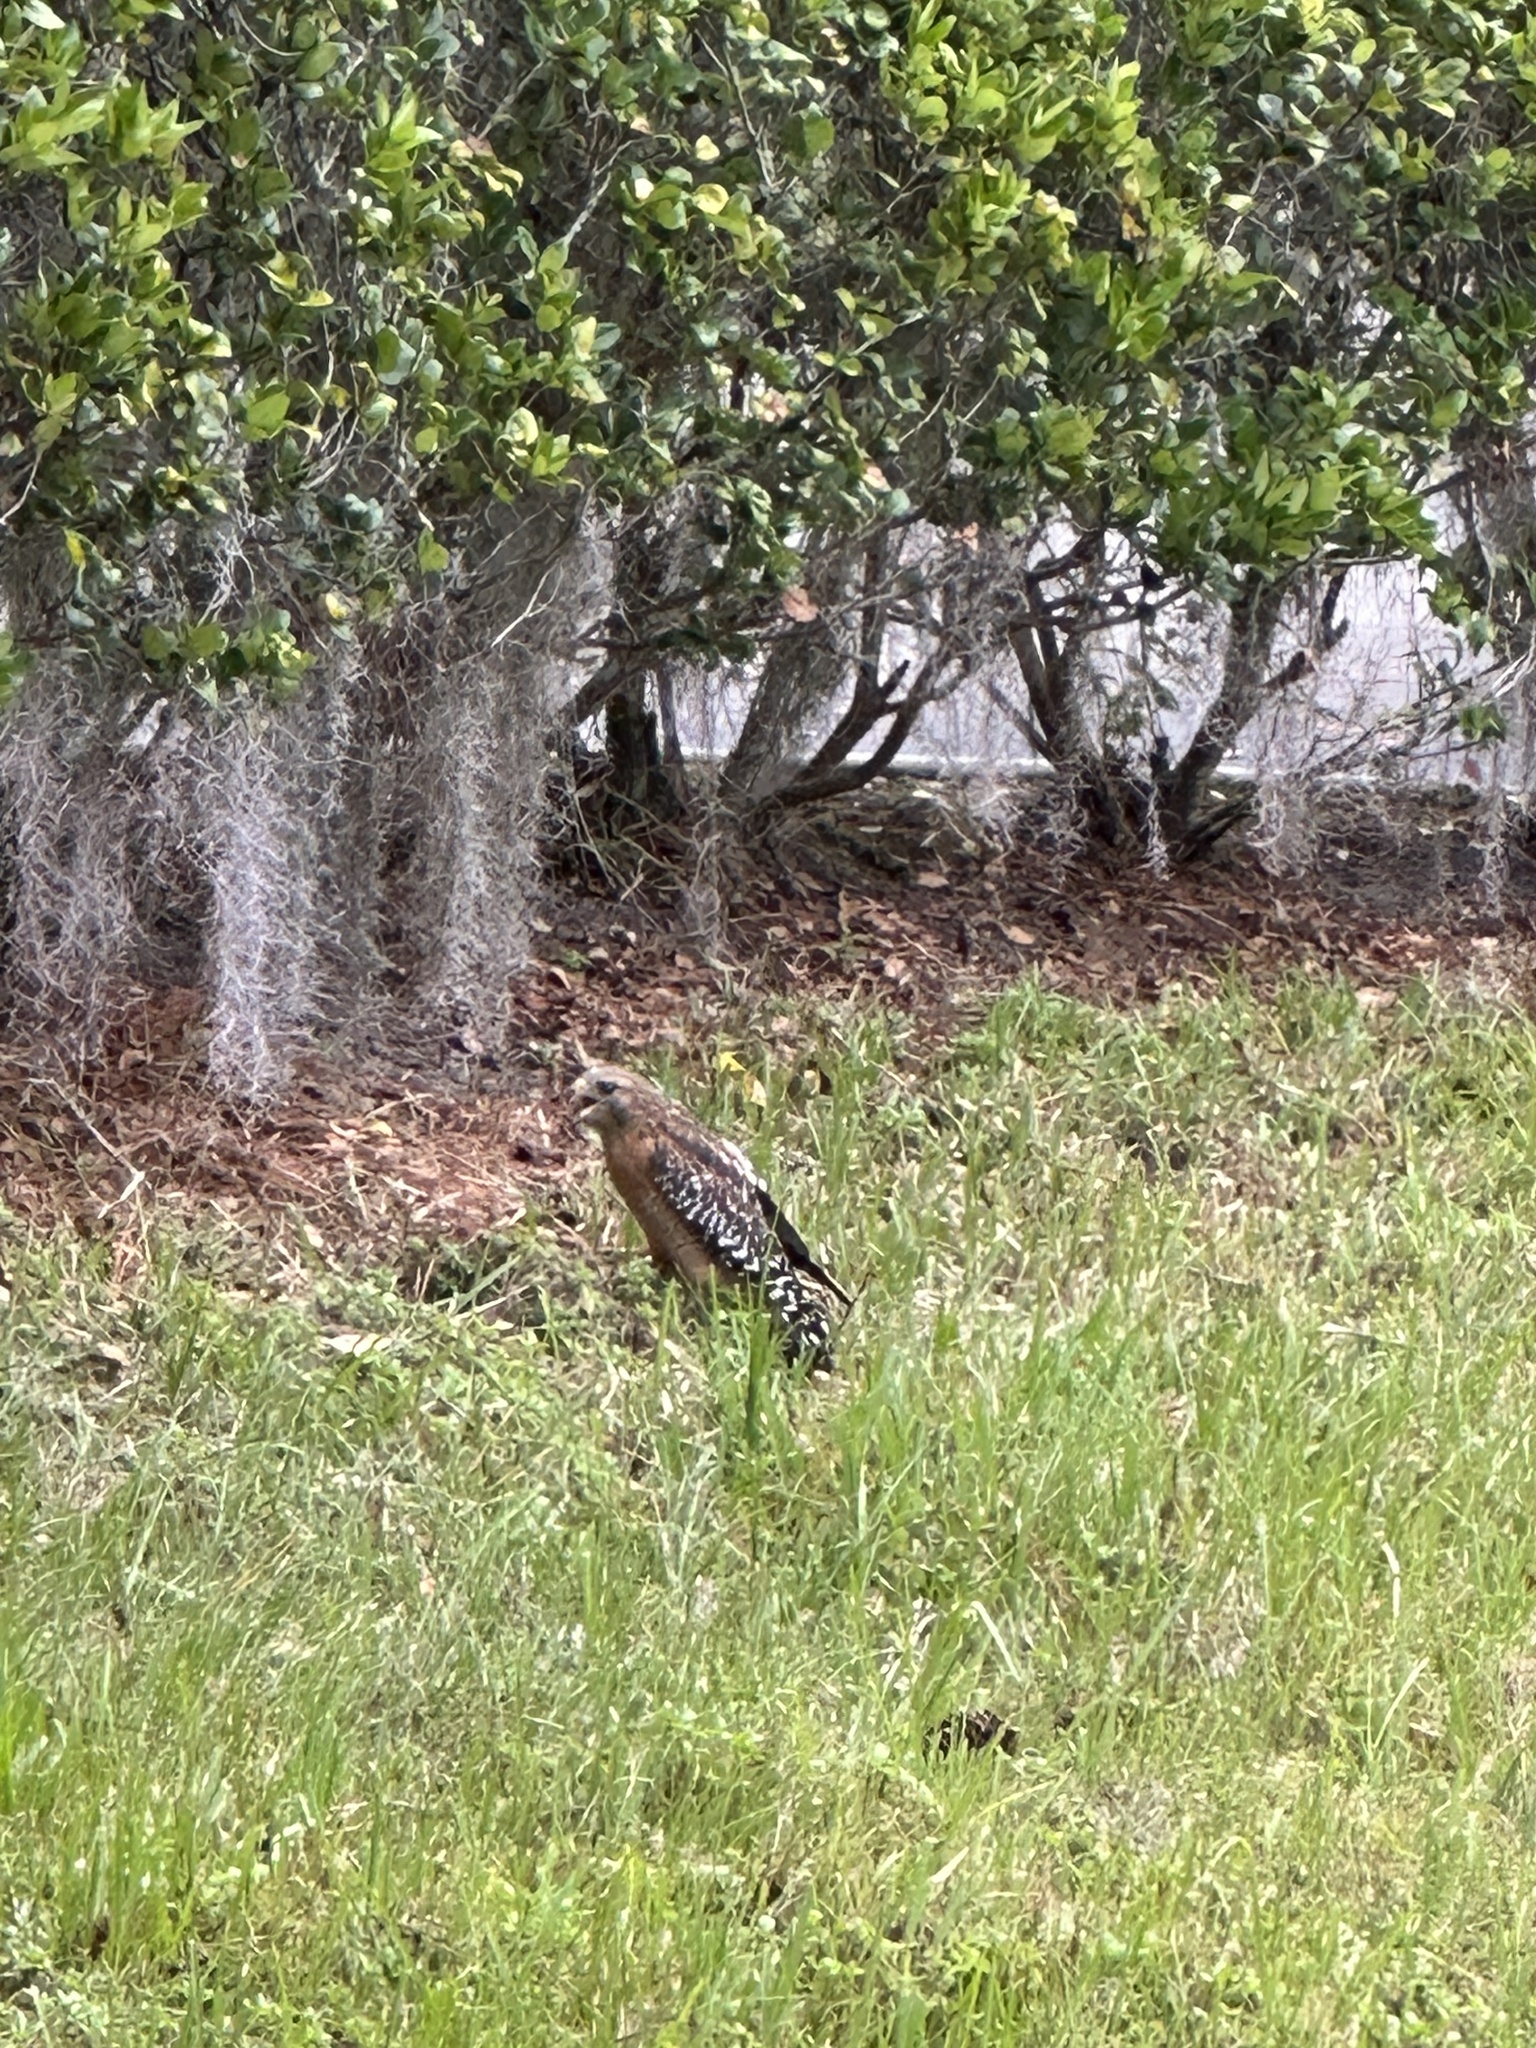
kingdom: Animalia
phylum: Chordata
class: Aves
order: Accipitriformes
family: Accipitridae
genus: Buteo
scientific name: Buteo lineatus
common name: Red-shouldered hawk
